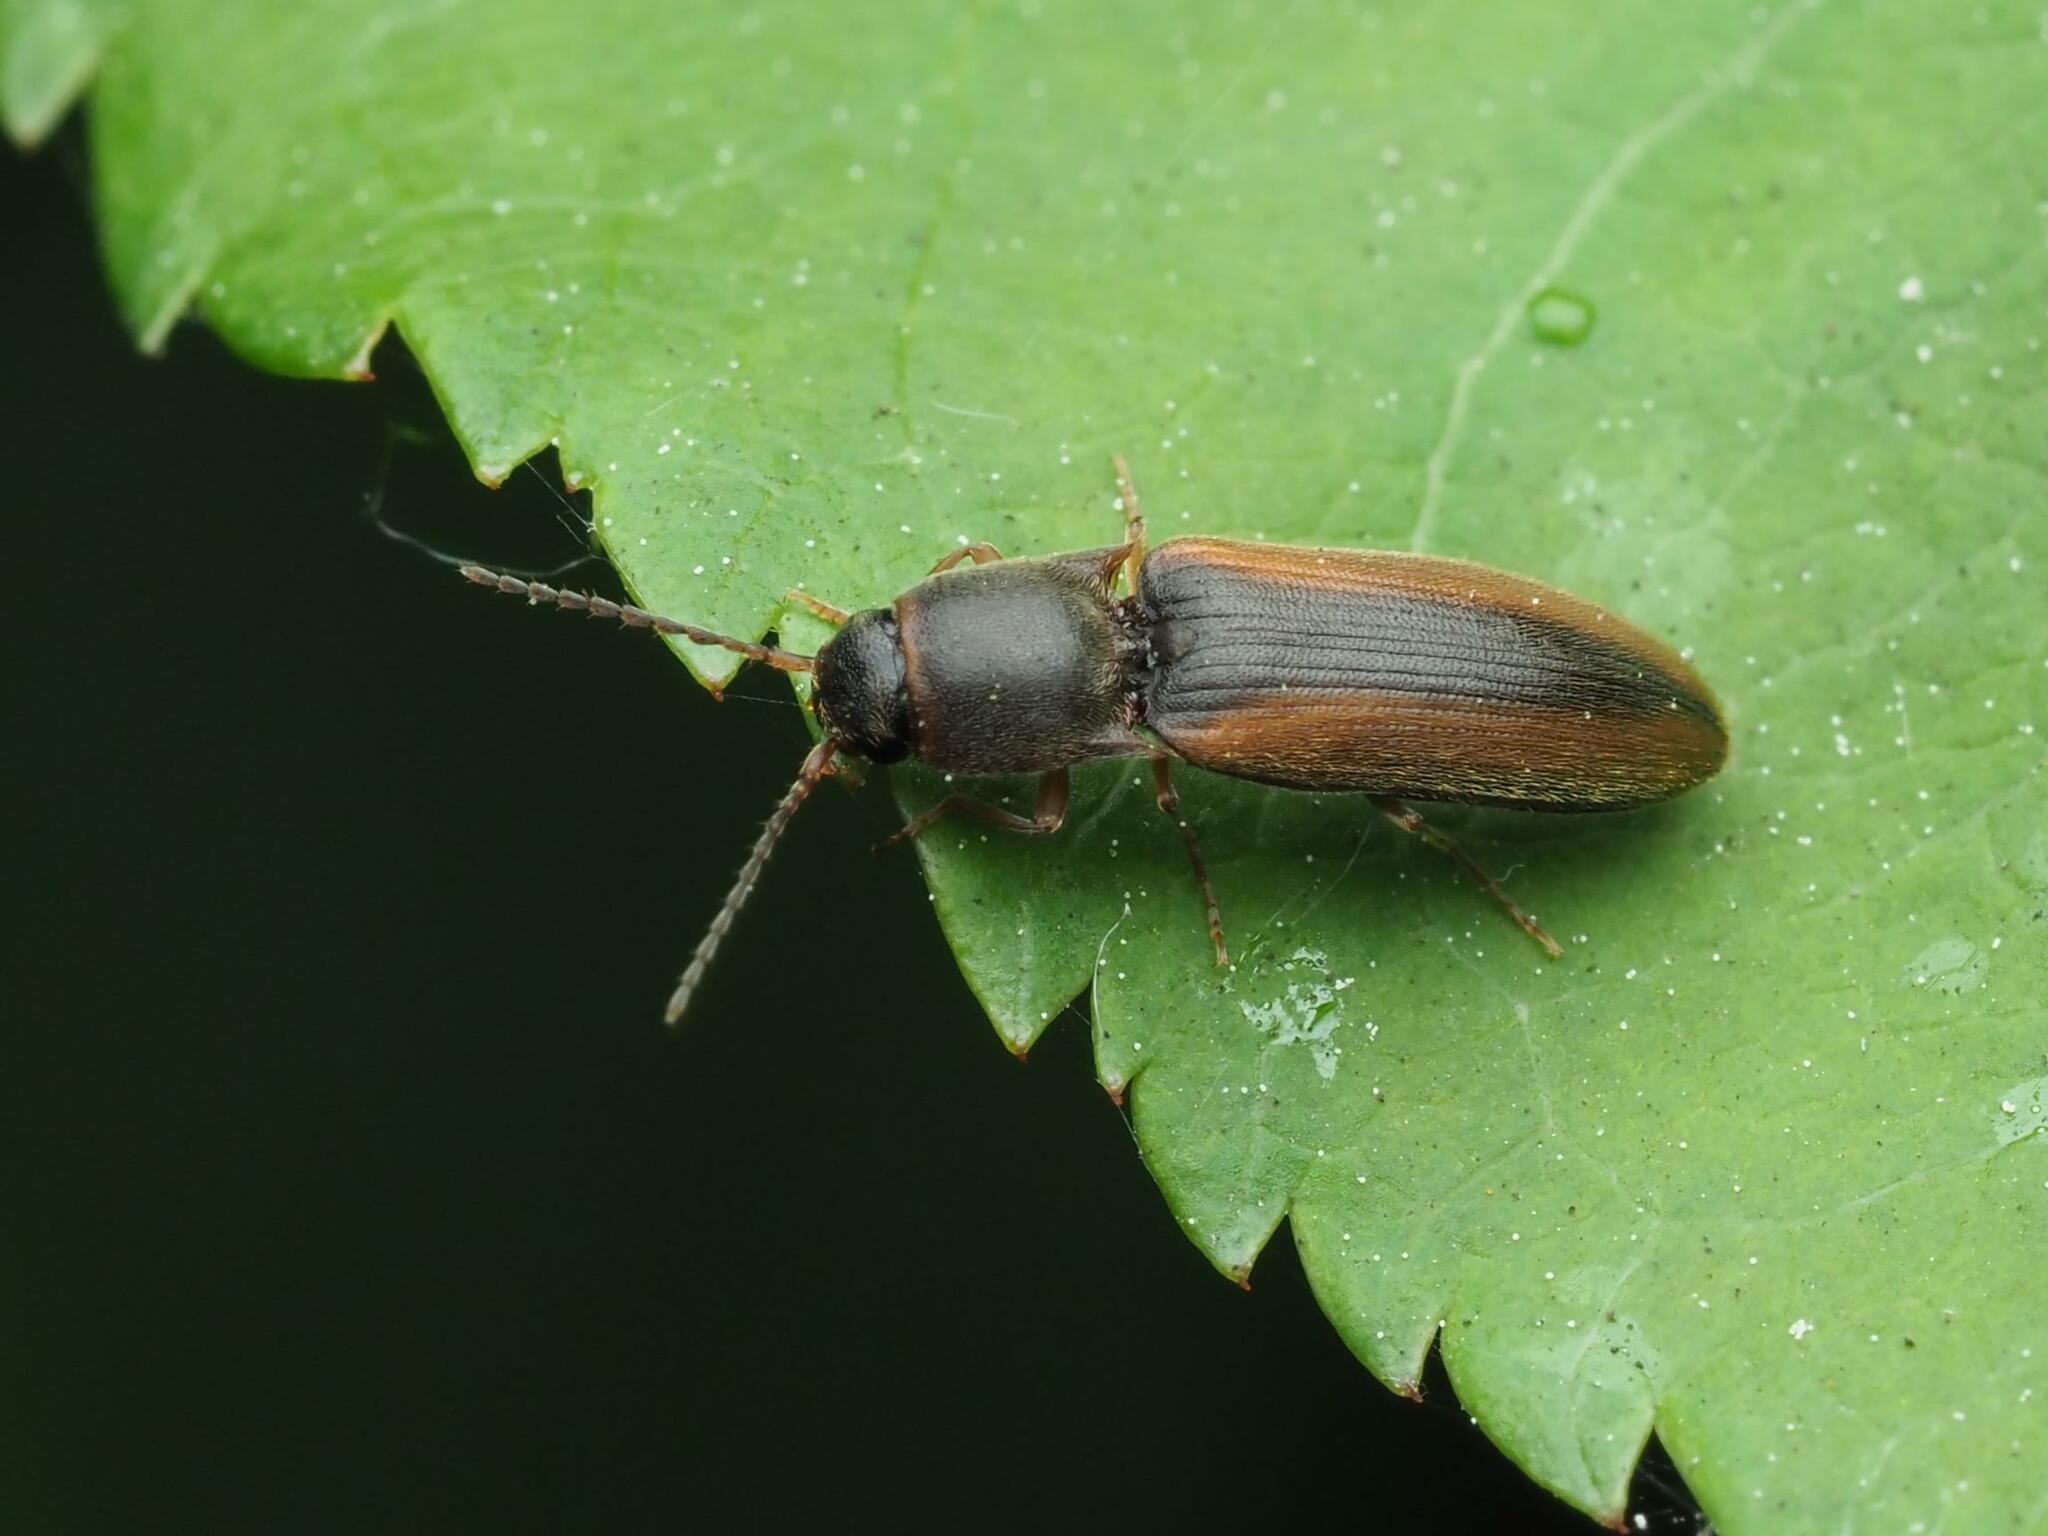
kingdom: Animalia
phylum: Arthropoda
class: Insecta
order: Coleoptera
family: Elateridae
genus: Dalopius
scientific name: Dalopius marginatus
